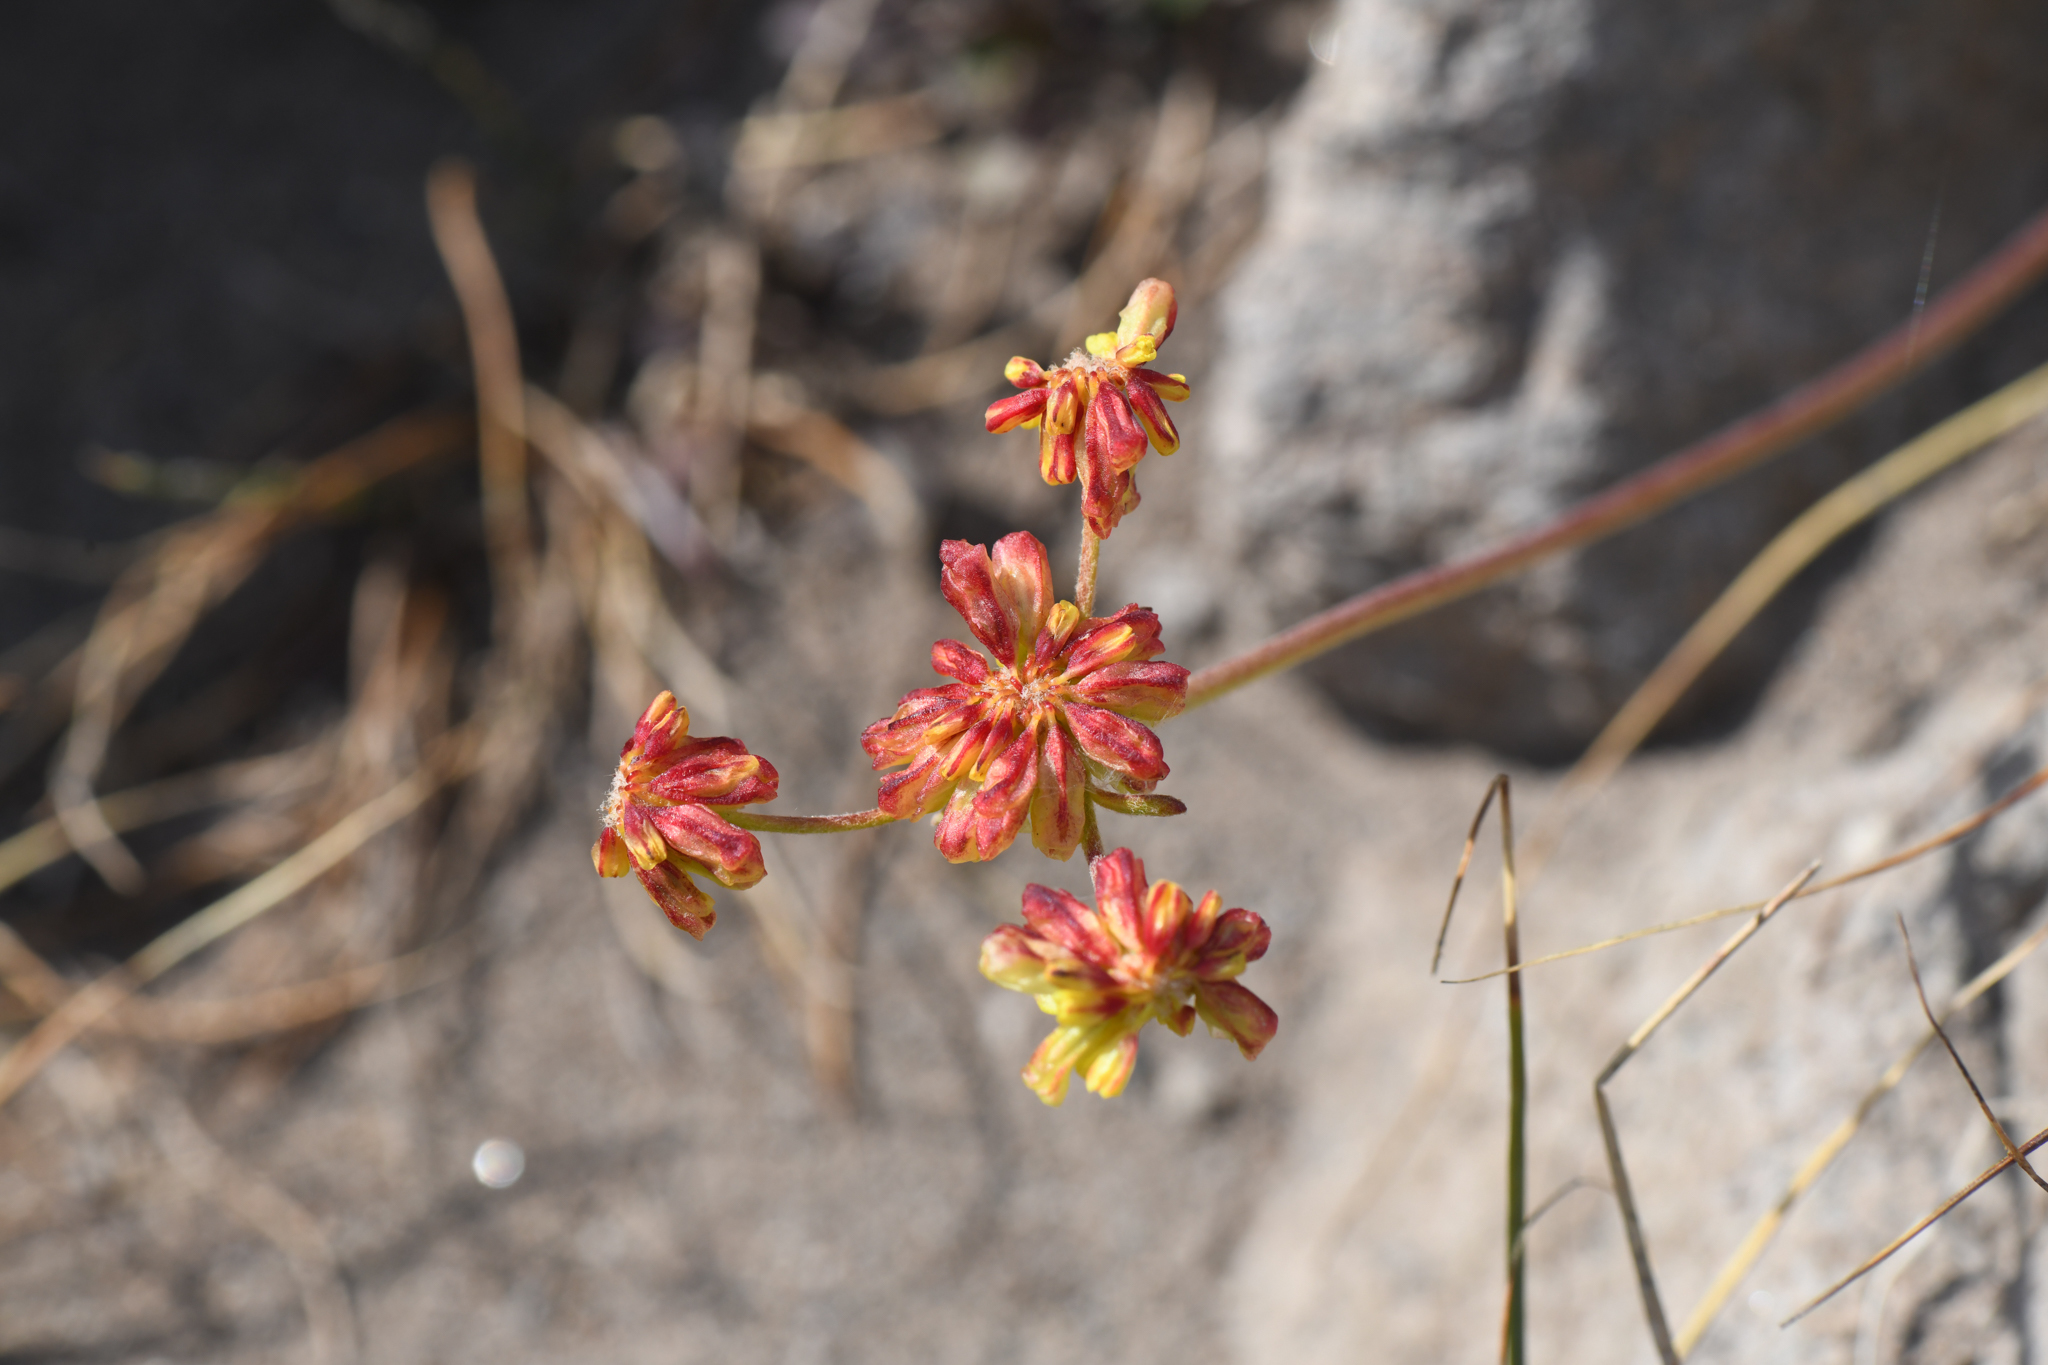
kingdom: Plantae
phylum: Tracheophyta
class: Magnoliopsida
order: Caryophyllales
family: Polygonaceae
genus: Eriogonum
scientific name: Eriogonum marifolium
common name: Marum-leaf wild buckwheat
